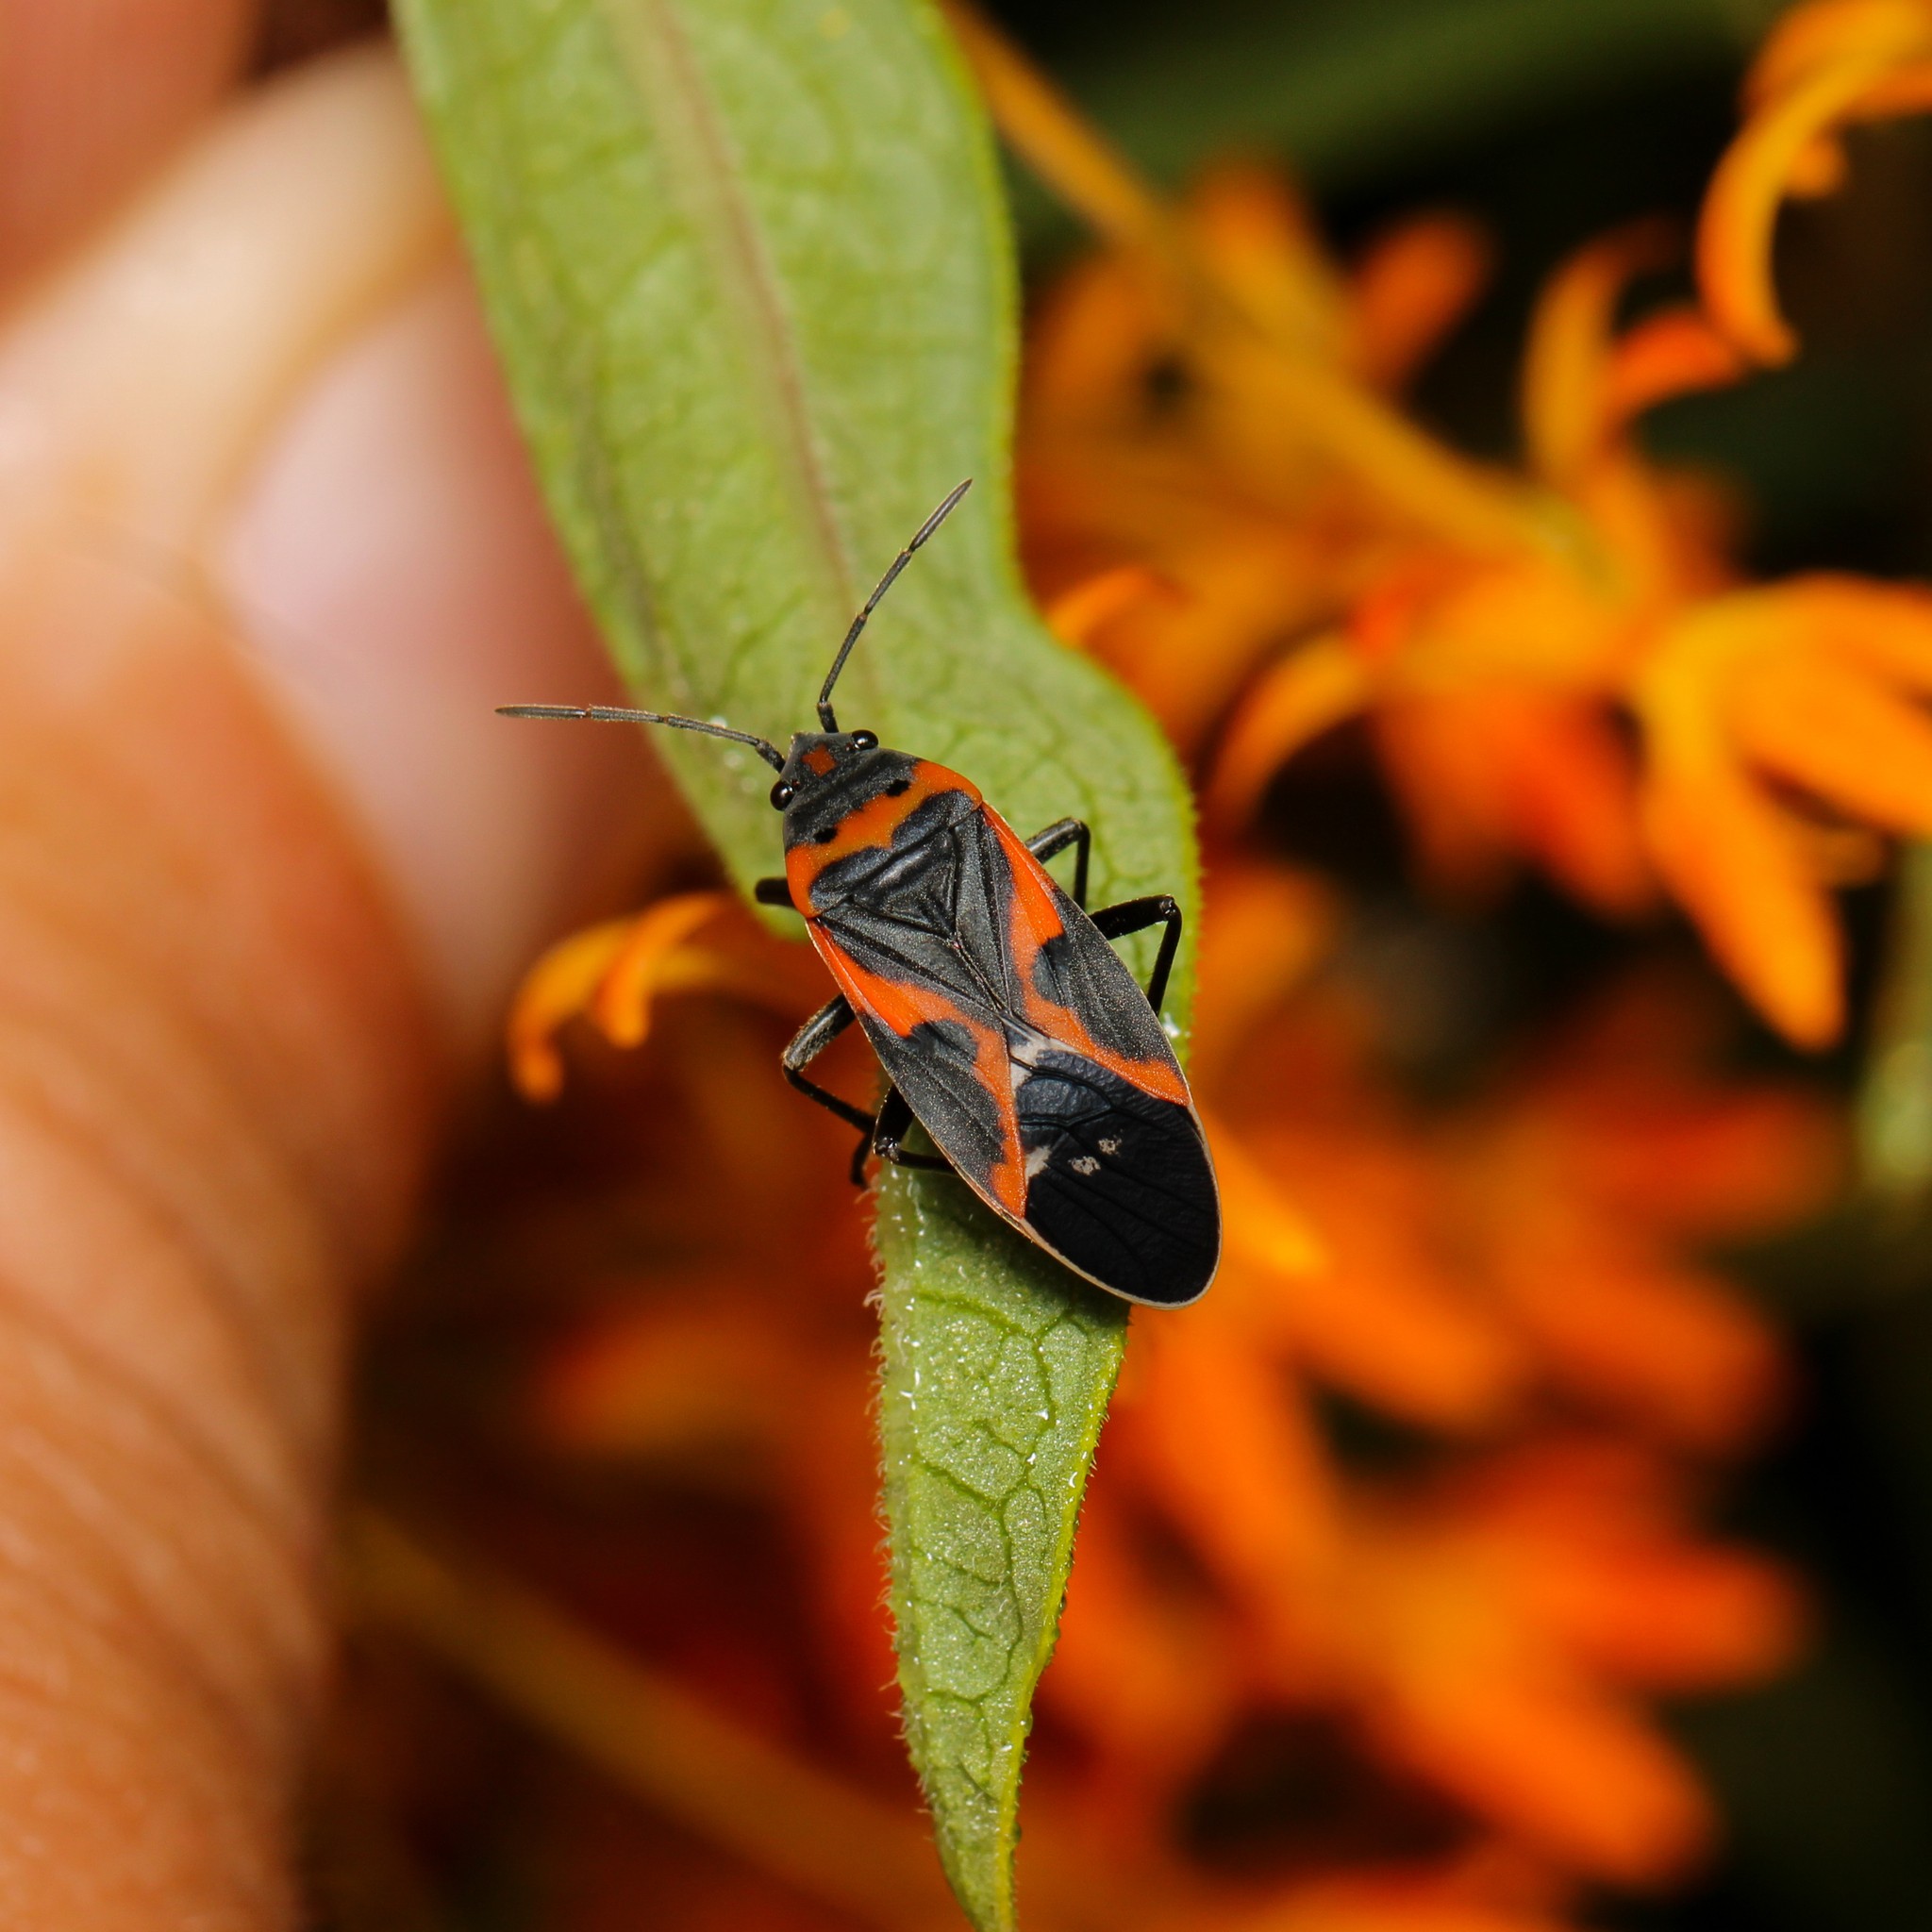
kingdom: Animalia
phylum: Arthropoda
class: Insecta
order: Hemiptera
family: Lygaeidae
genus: Lygaeus
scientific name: Lygaeus kalmii
